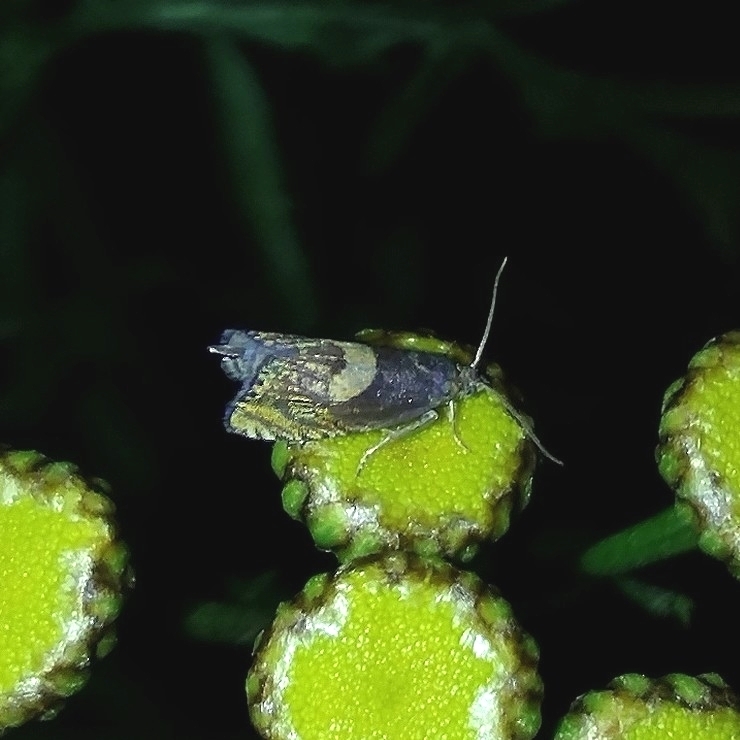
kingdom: Animalia
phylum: Arthropoda
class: Insecta
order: Lepidoptera
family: Tortricidae
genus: Dichrorampha
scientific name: Dichrorampha petiverella
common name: Common drill
